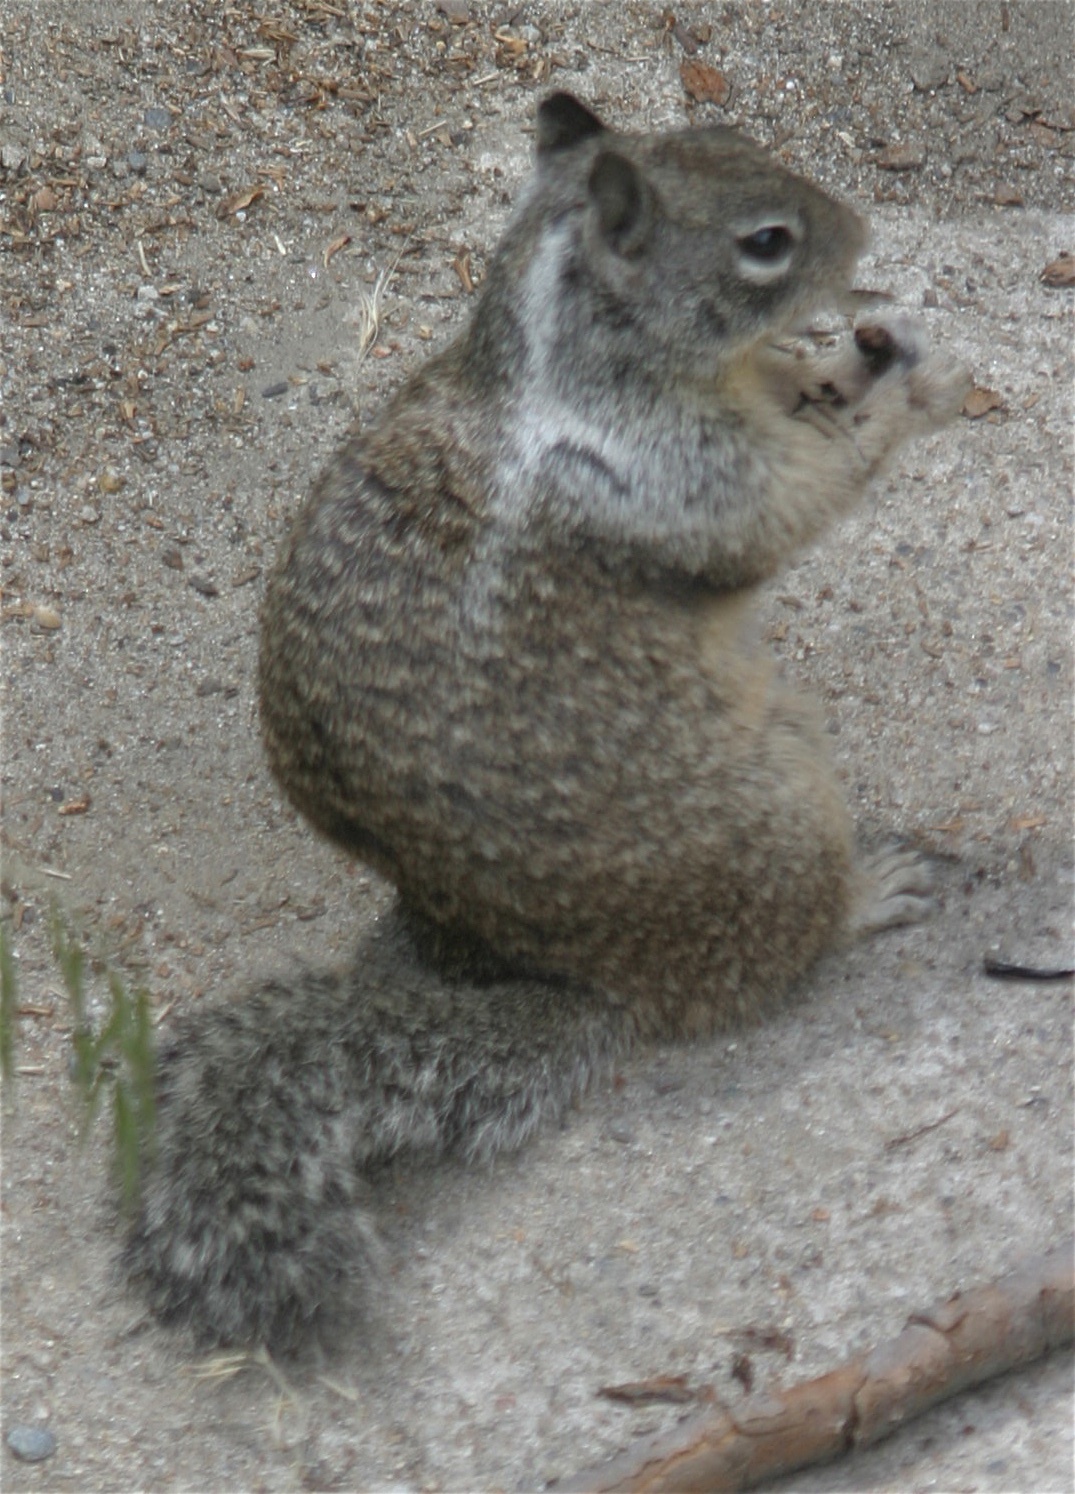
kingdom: Animalia
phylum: Chordata
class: Mammalia
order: Rodentia
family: Sciuridae
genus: Otospermophilus
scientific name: Otospermophilus beecheyi
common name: California ground squirrel
